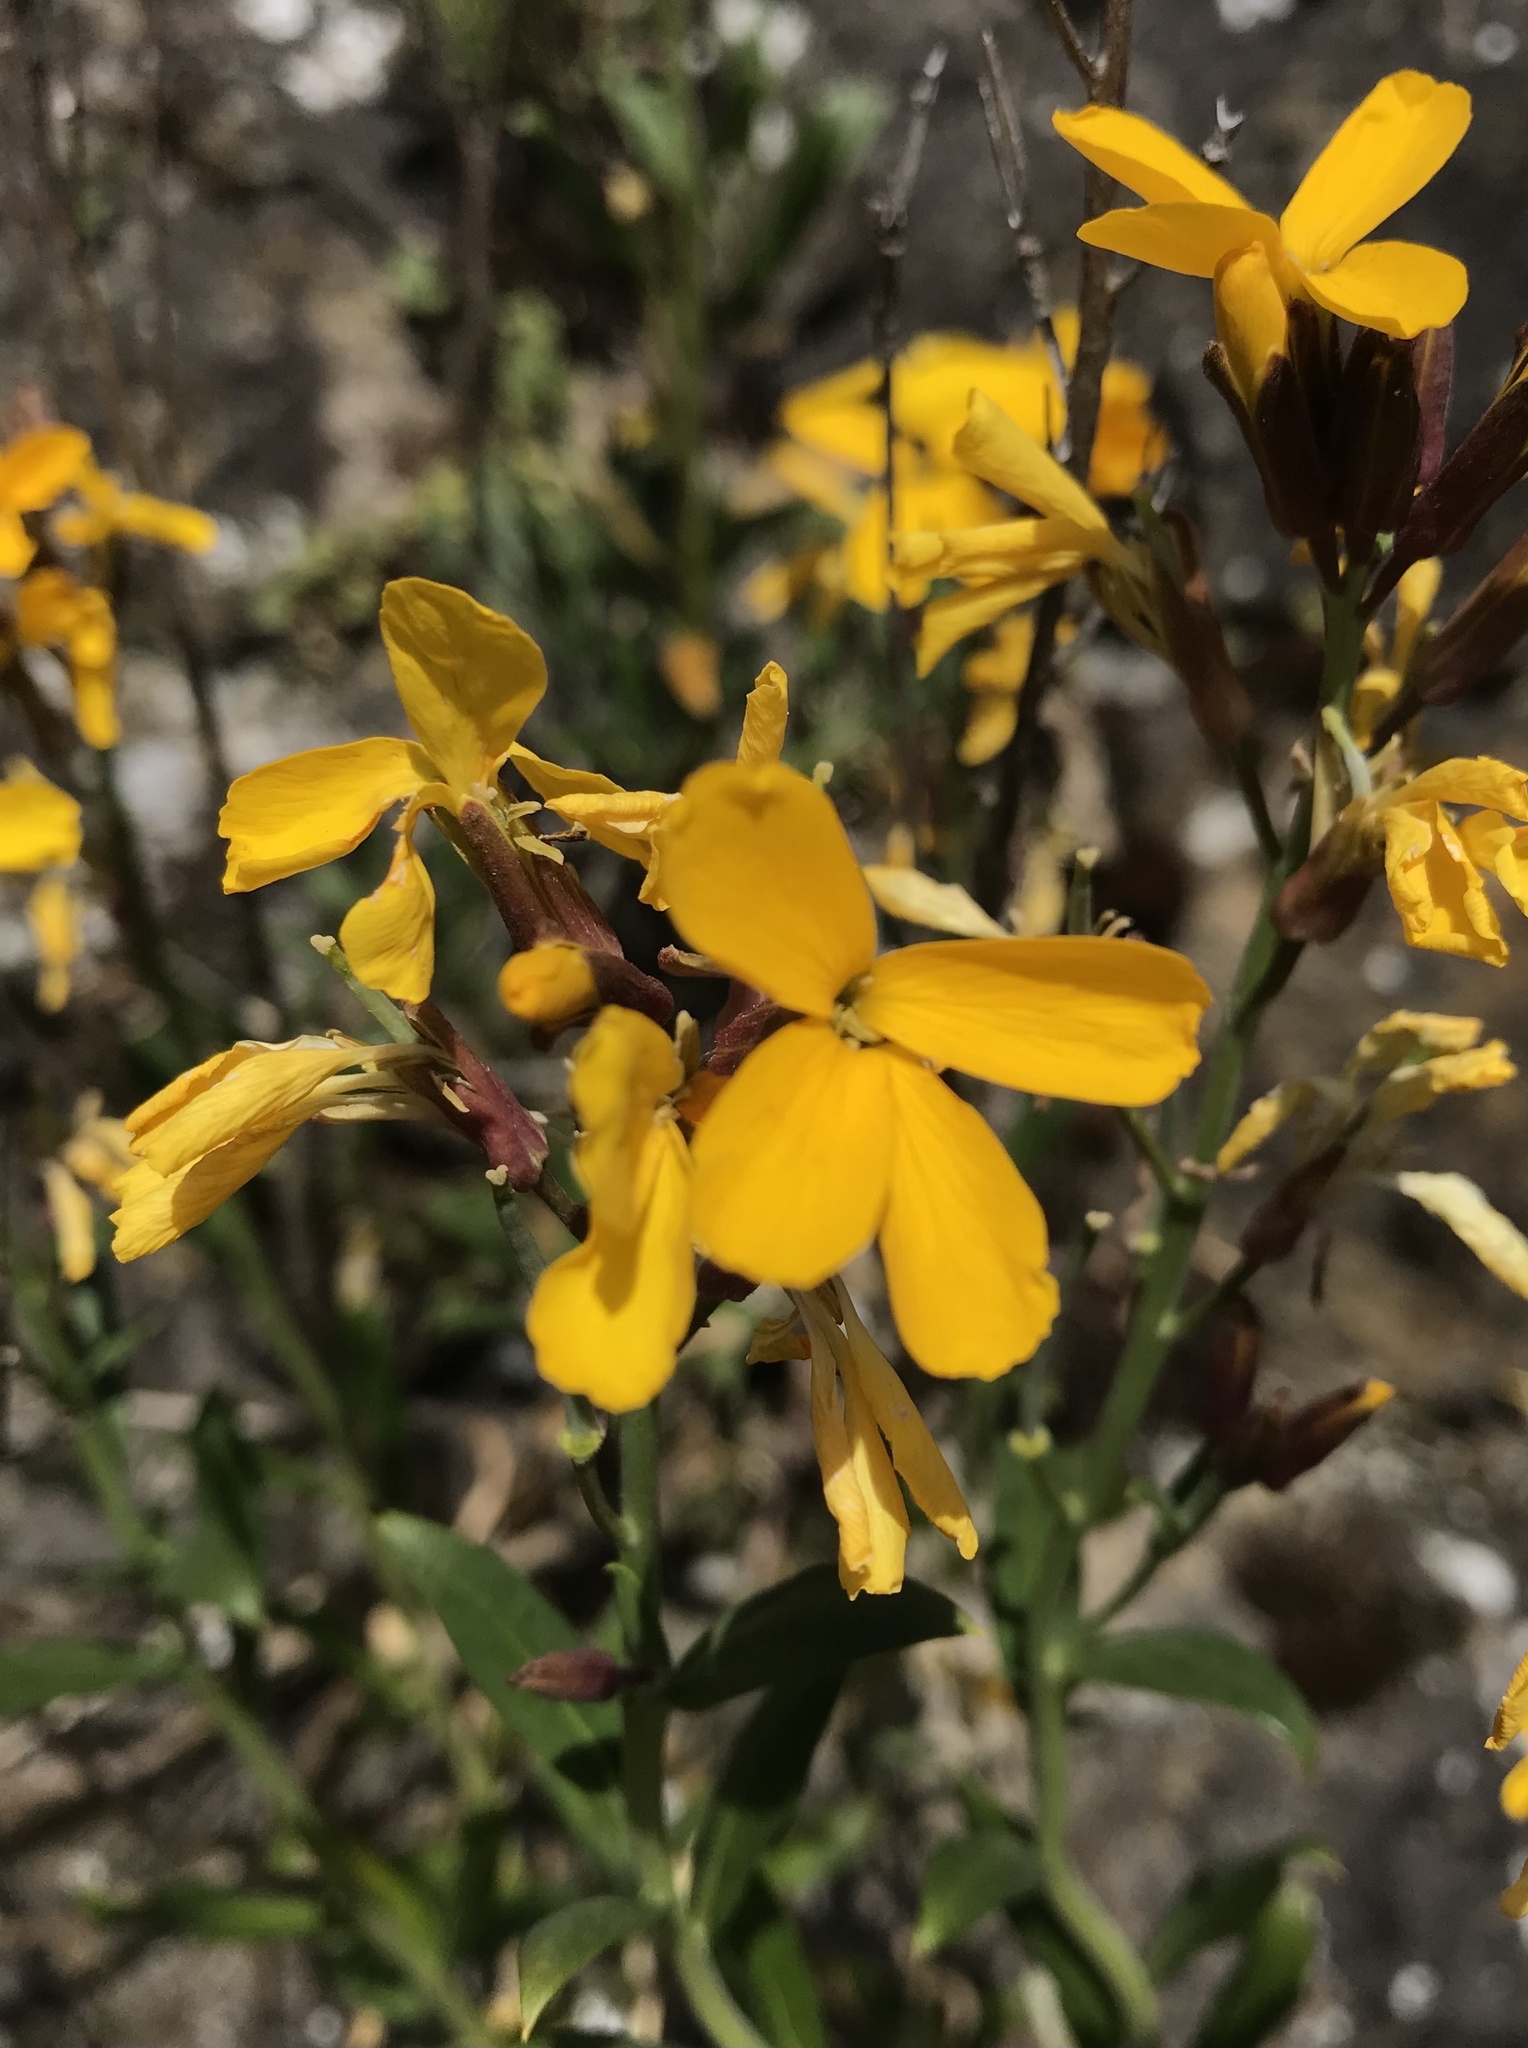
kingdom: Plantae
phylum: Tracheophyta
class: Magnoliopsida
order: Brassicales
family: Brassicaceae
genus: Erysimum
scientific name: Erysimum cheiri
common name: Wallflower
